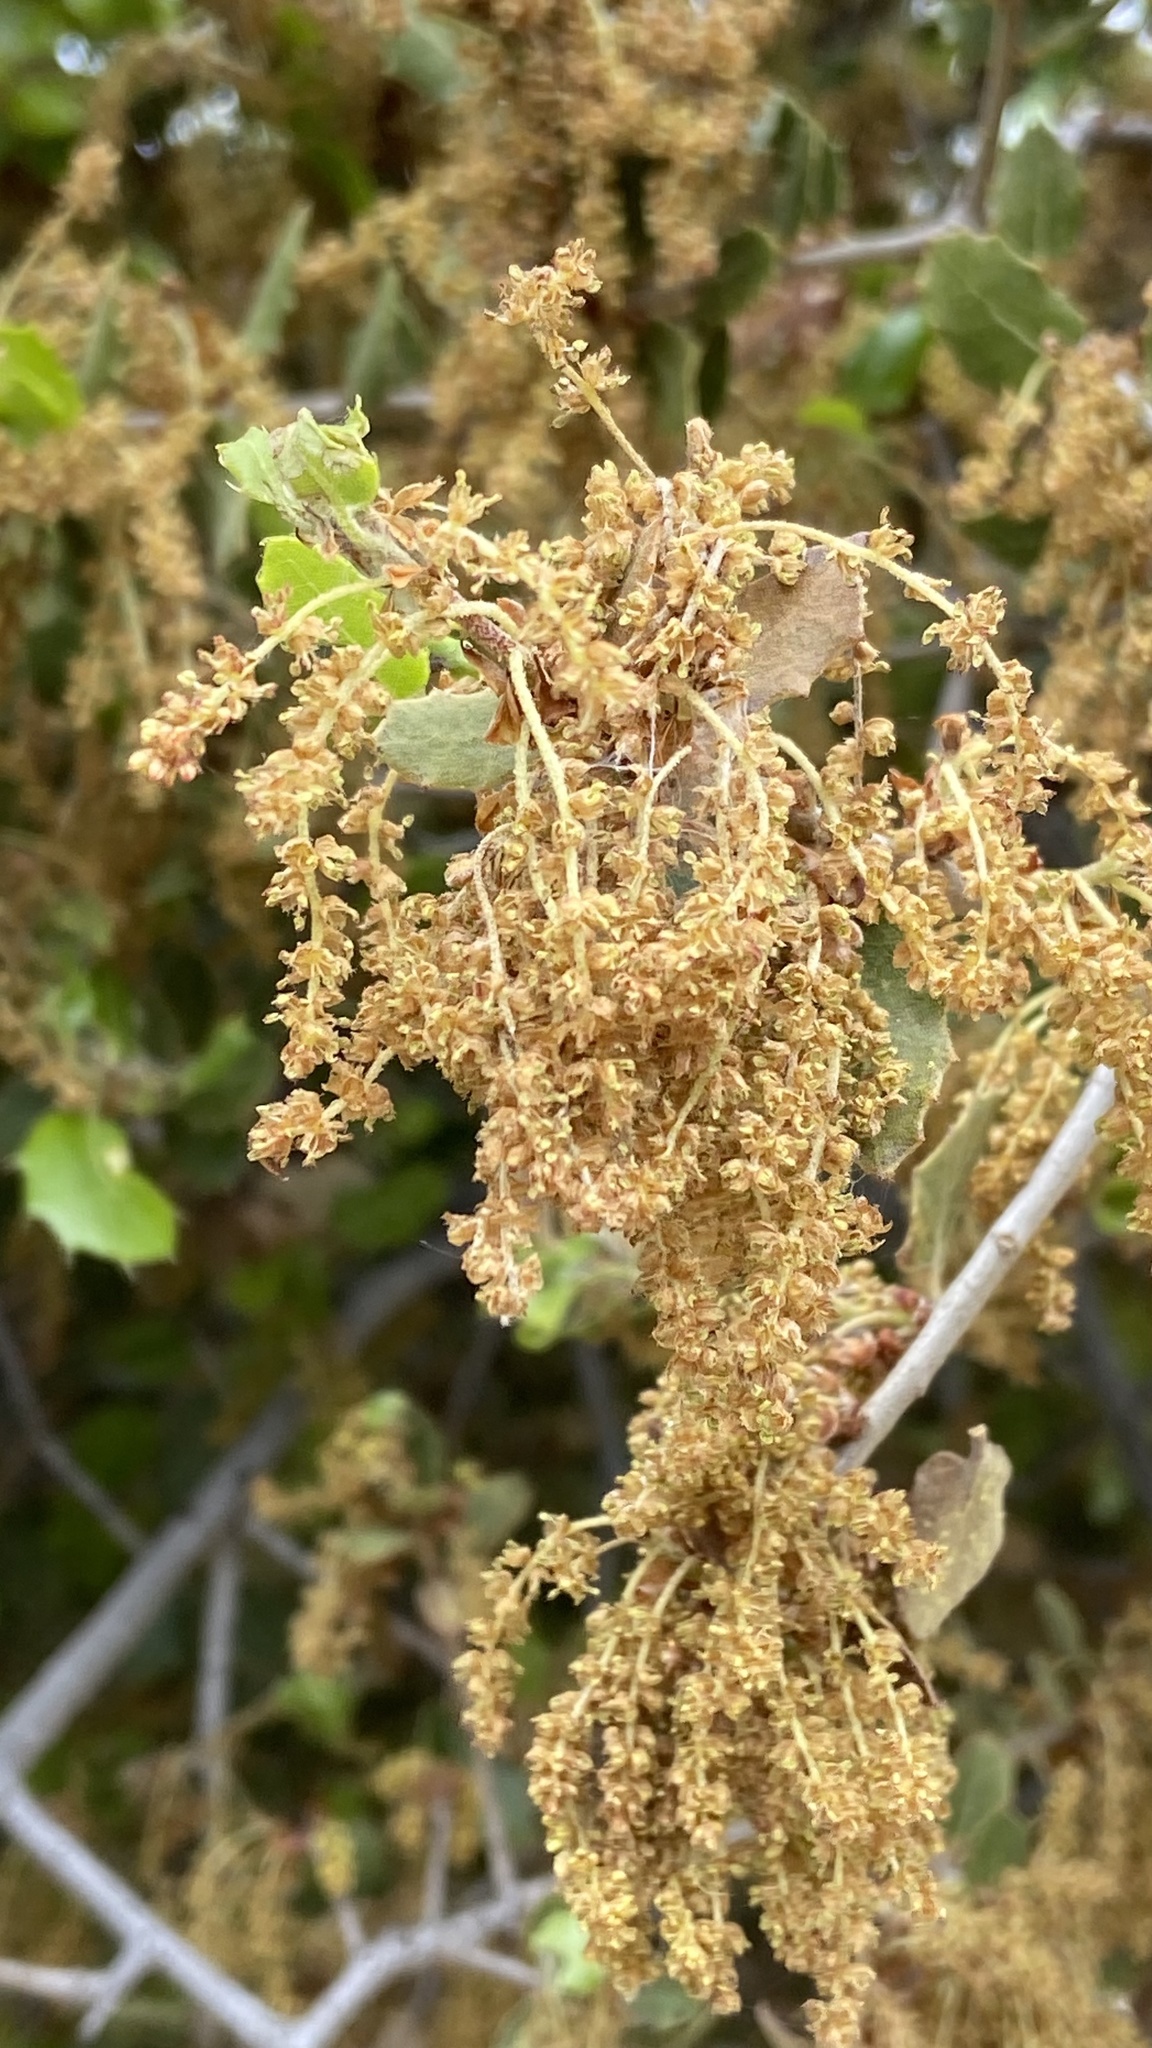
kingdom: Plantae
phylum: Tracheophyta
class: Magnoliopsida
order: Fagales
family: Fagaceae
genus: Quercus
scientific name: Quercus coccifera
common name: Kermes oak
